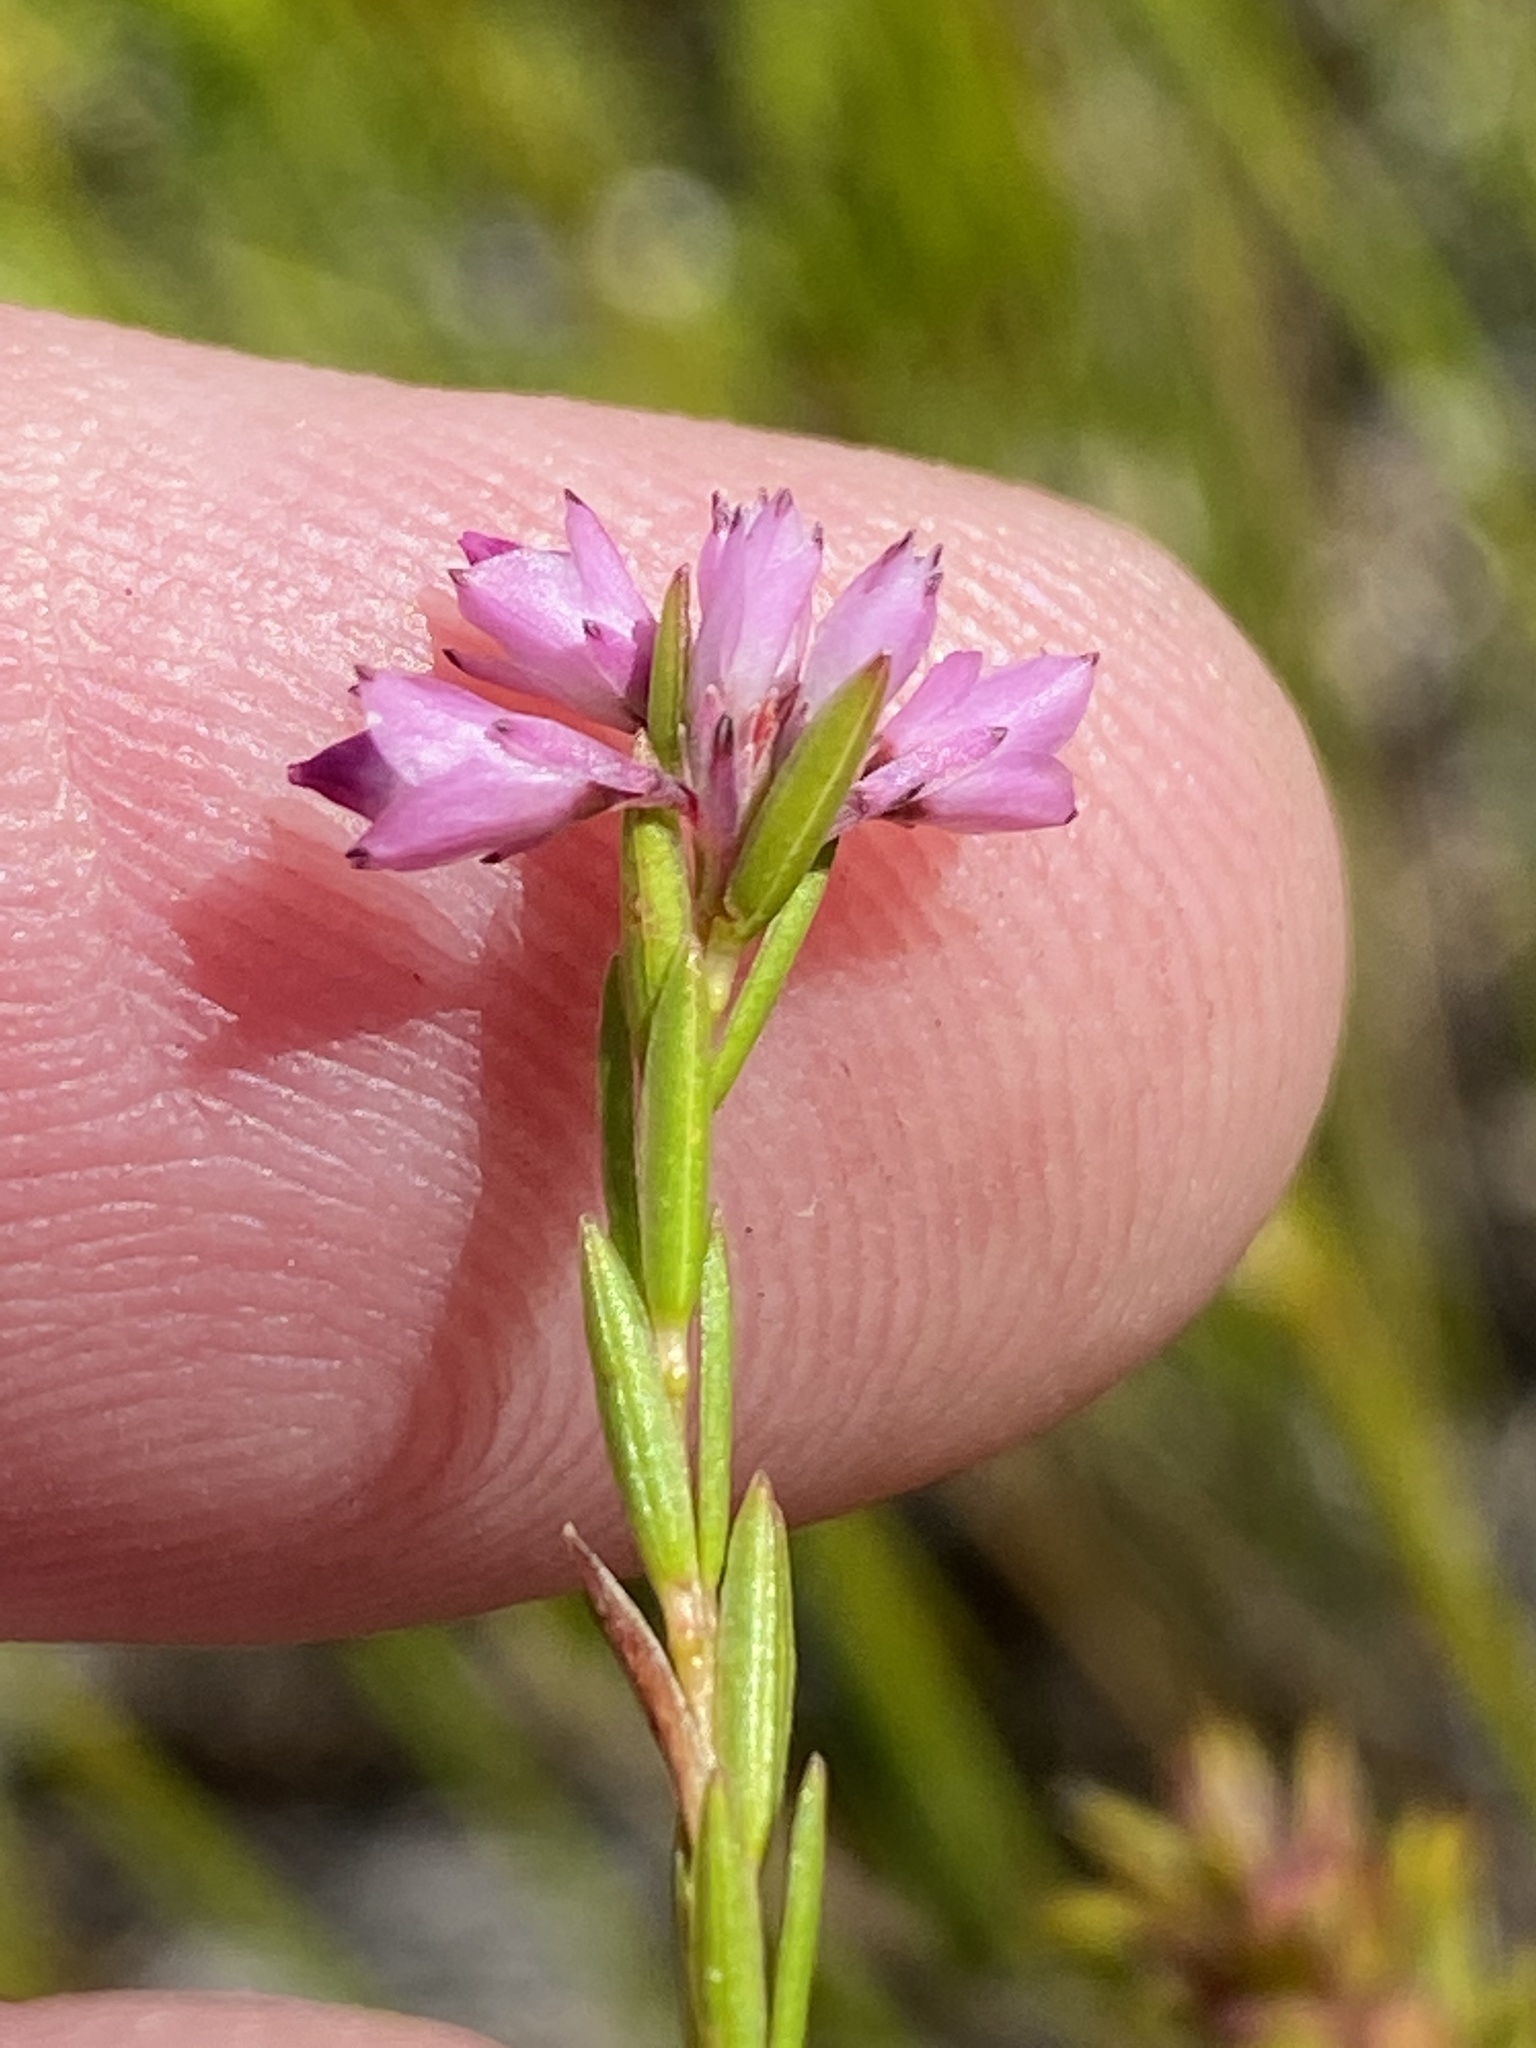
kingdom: Plantae
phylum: Tracheophyta
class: Magnoliopsida
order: Ericales
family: Ericaceae
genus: Erica
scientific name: Erica corifolia
